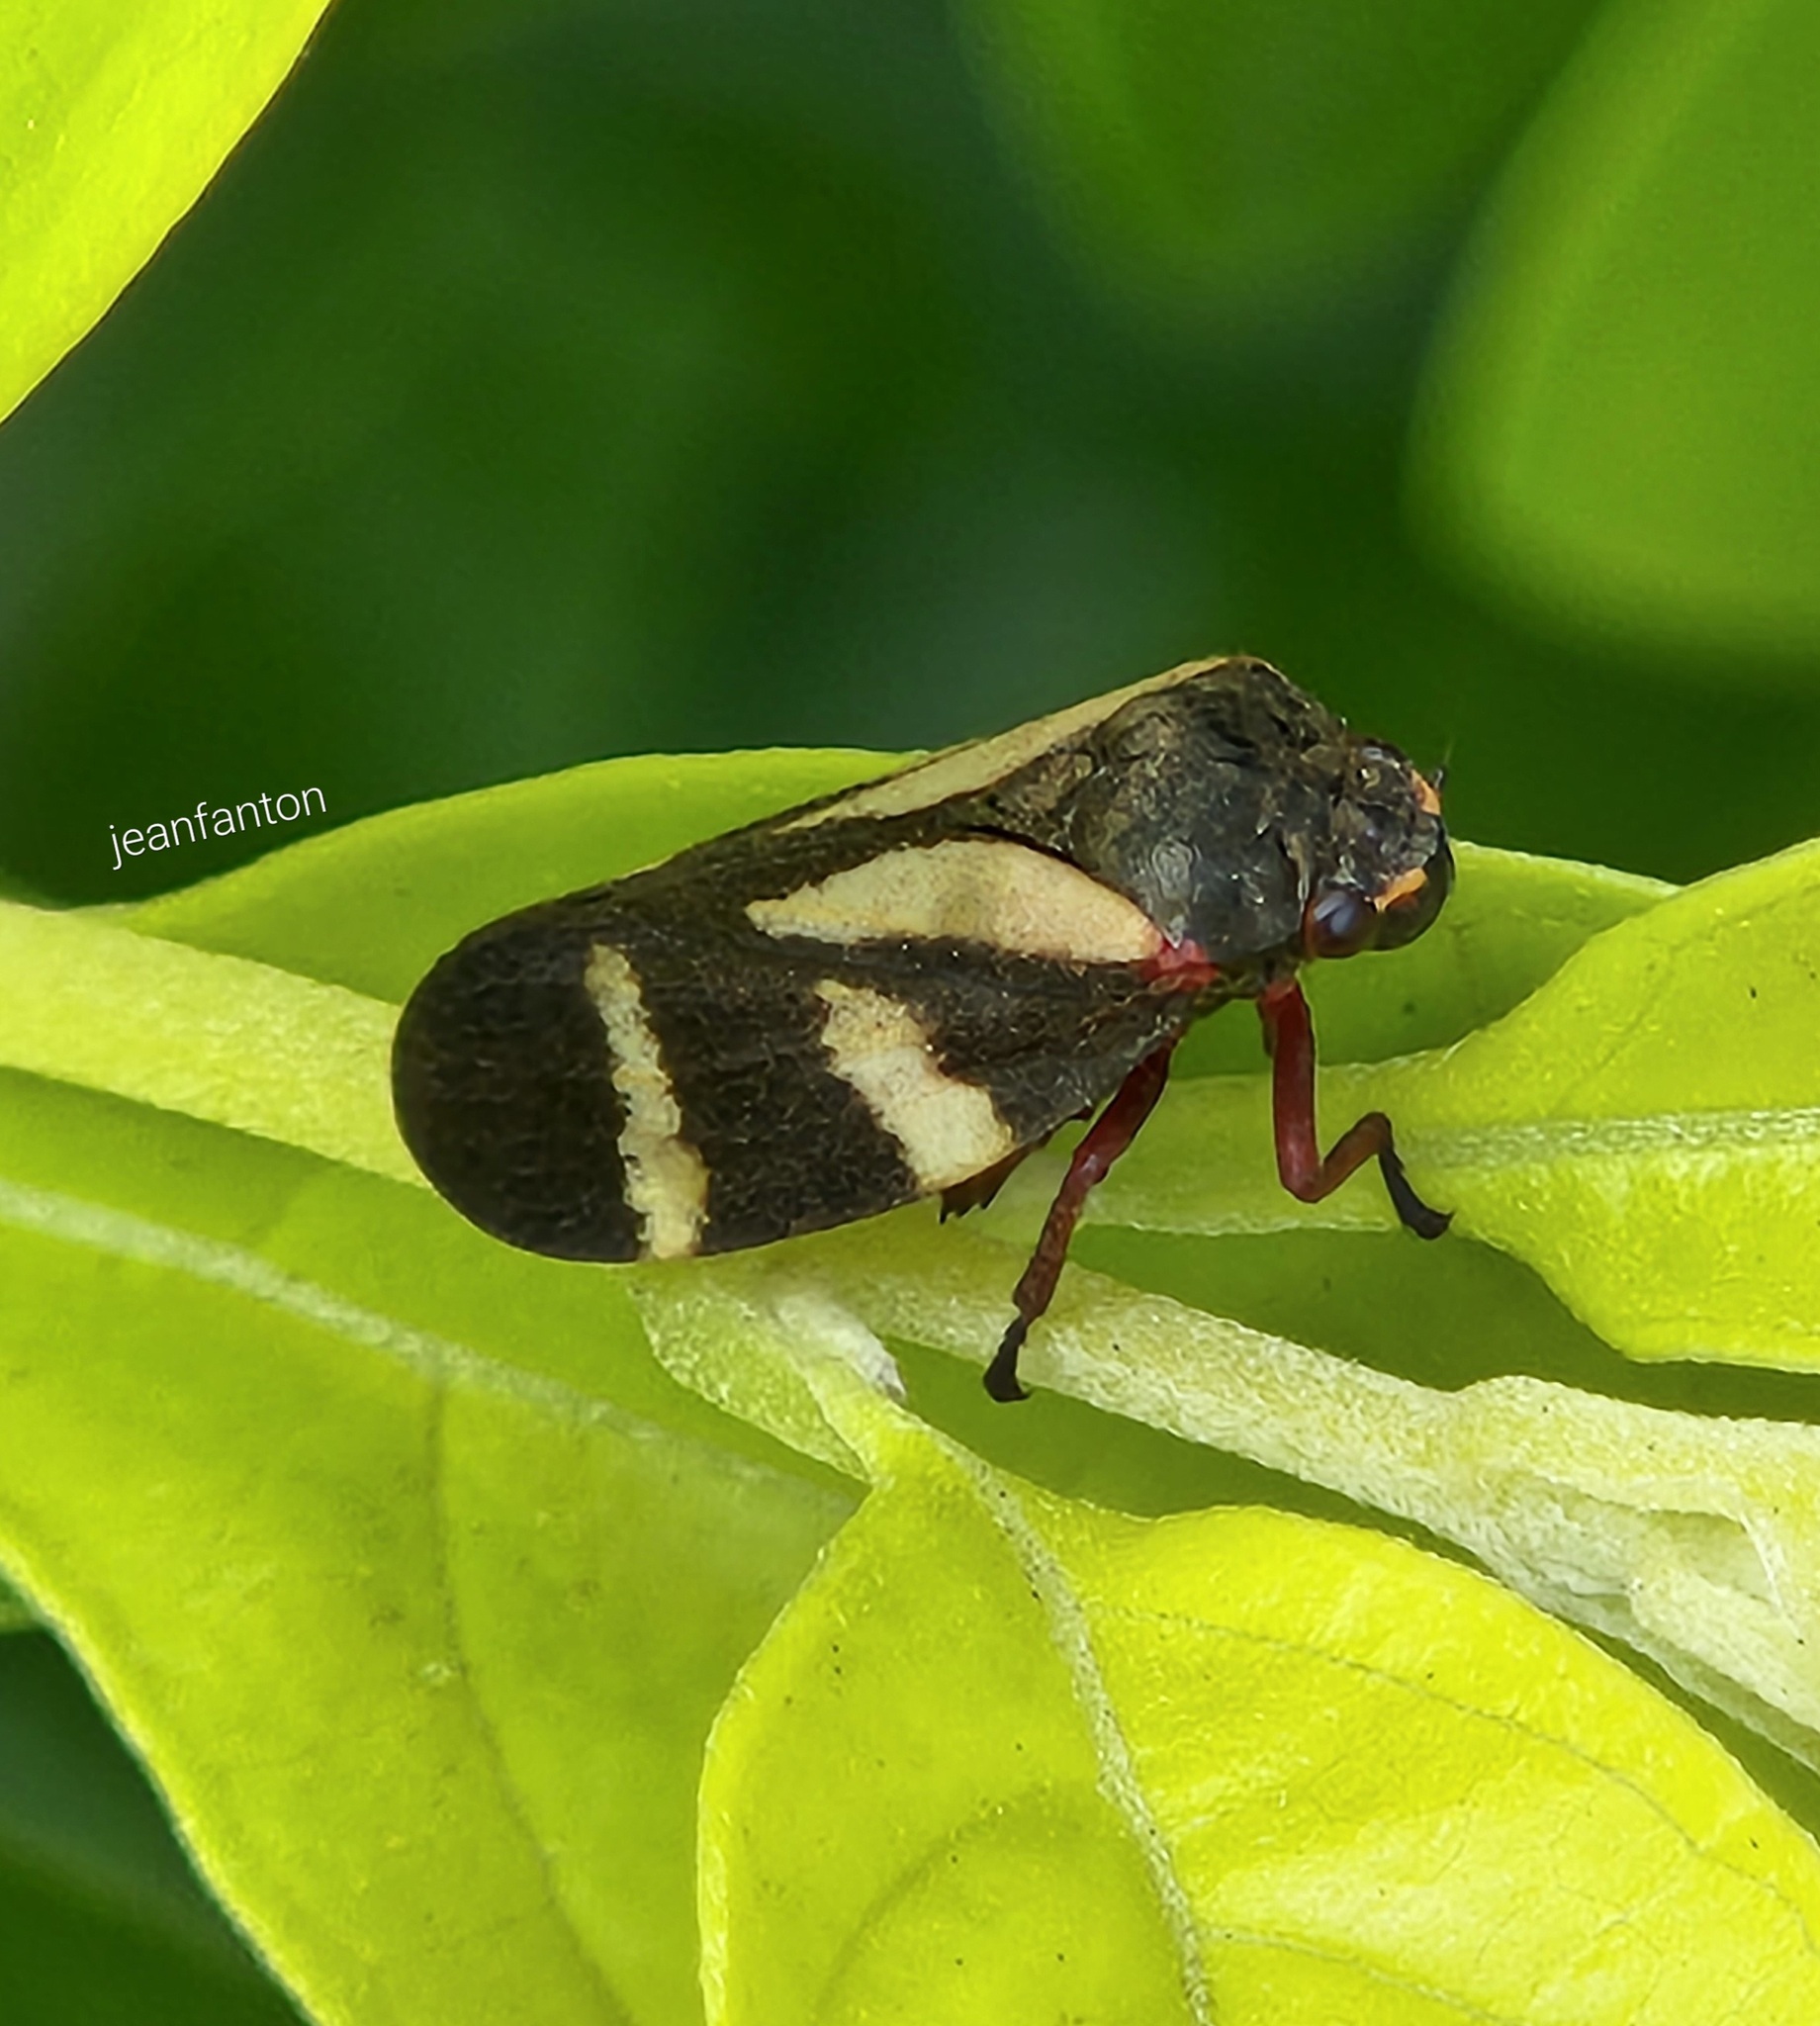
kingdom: Animalia
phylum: Arthropoda
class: Insecta
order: Hemiptera
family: Cercopidae
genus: Deois
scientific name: Deois flavopicta
